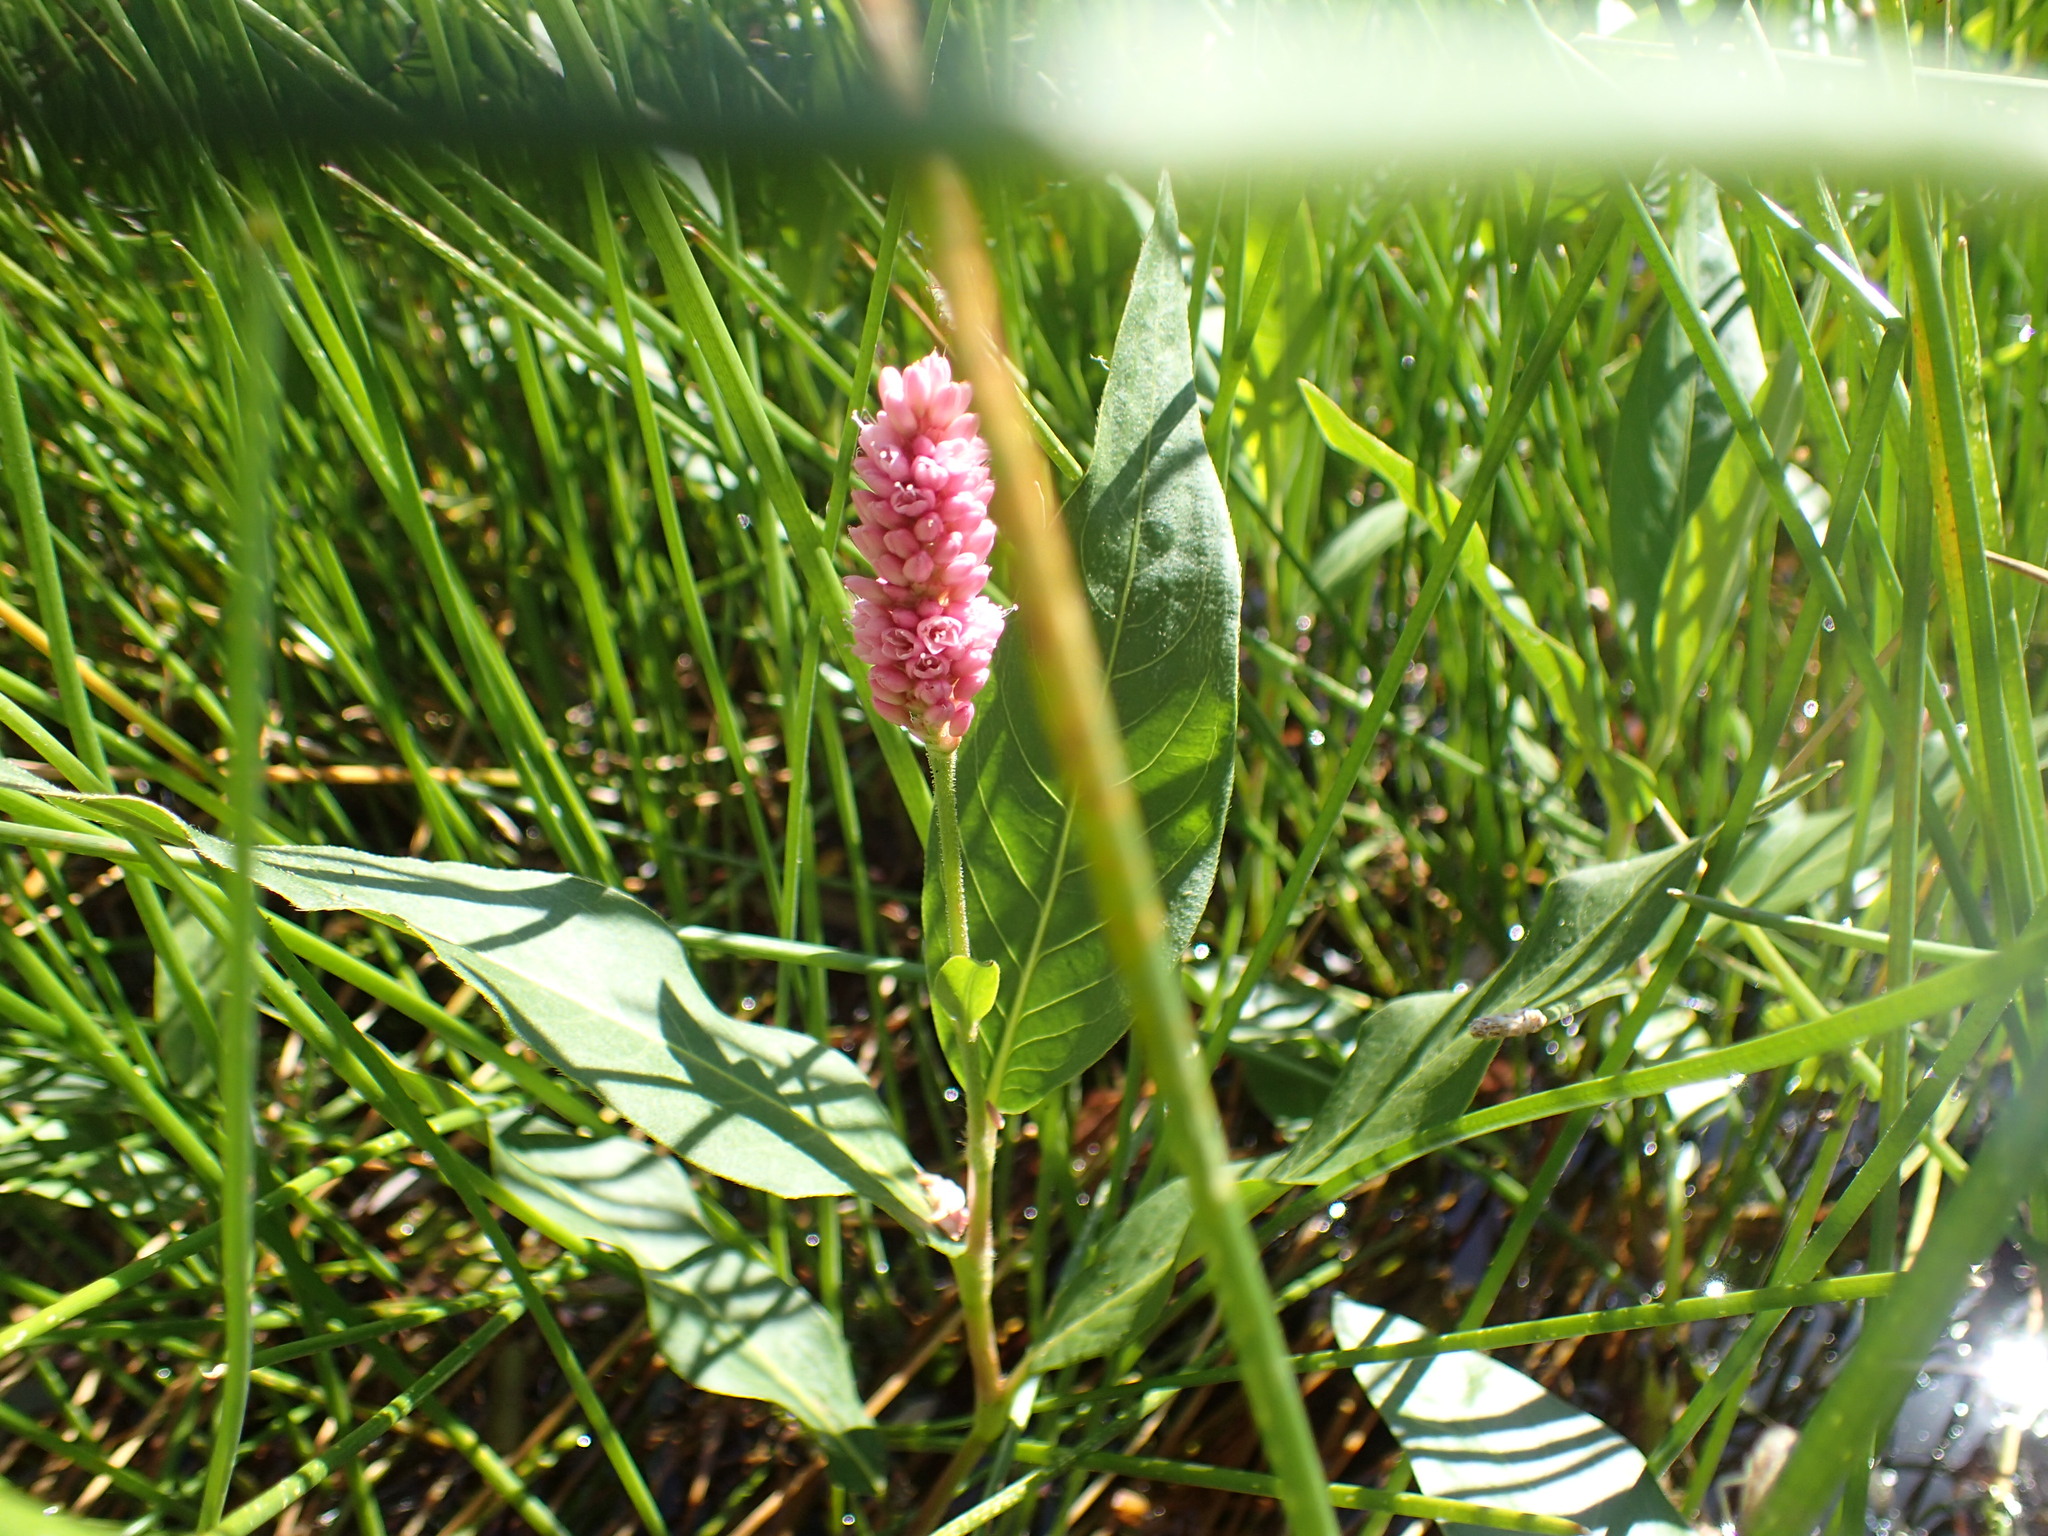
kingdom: Plantae
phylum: Tracheophyta
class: Magnoliopsida
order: Caryophyllales
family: Polygonaceae
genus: Persicaria
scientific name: Persicaria amphibia
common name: Amphibious bistort
